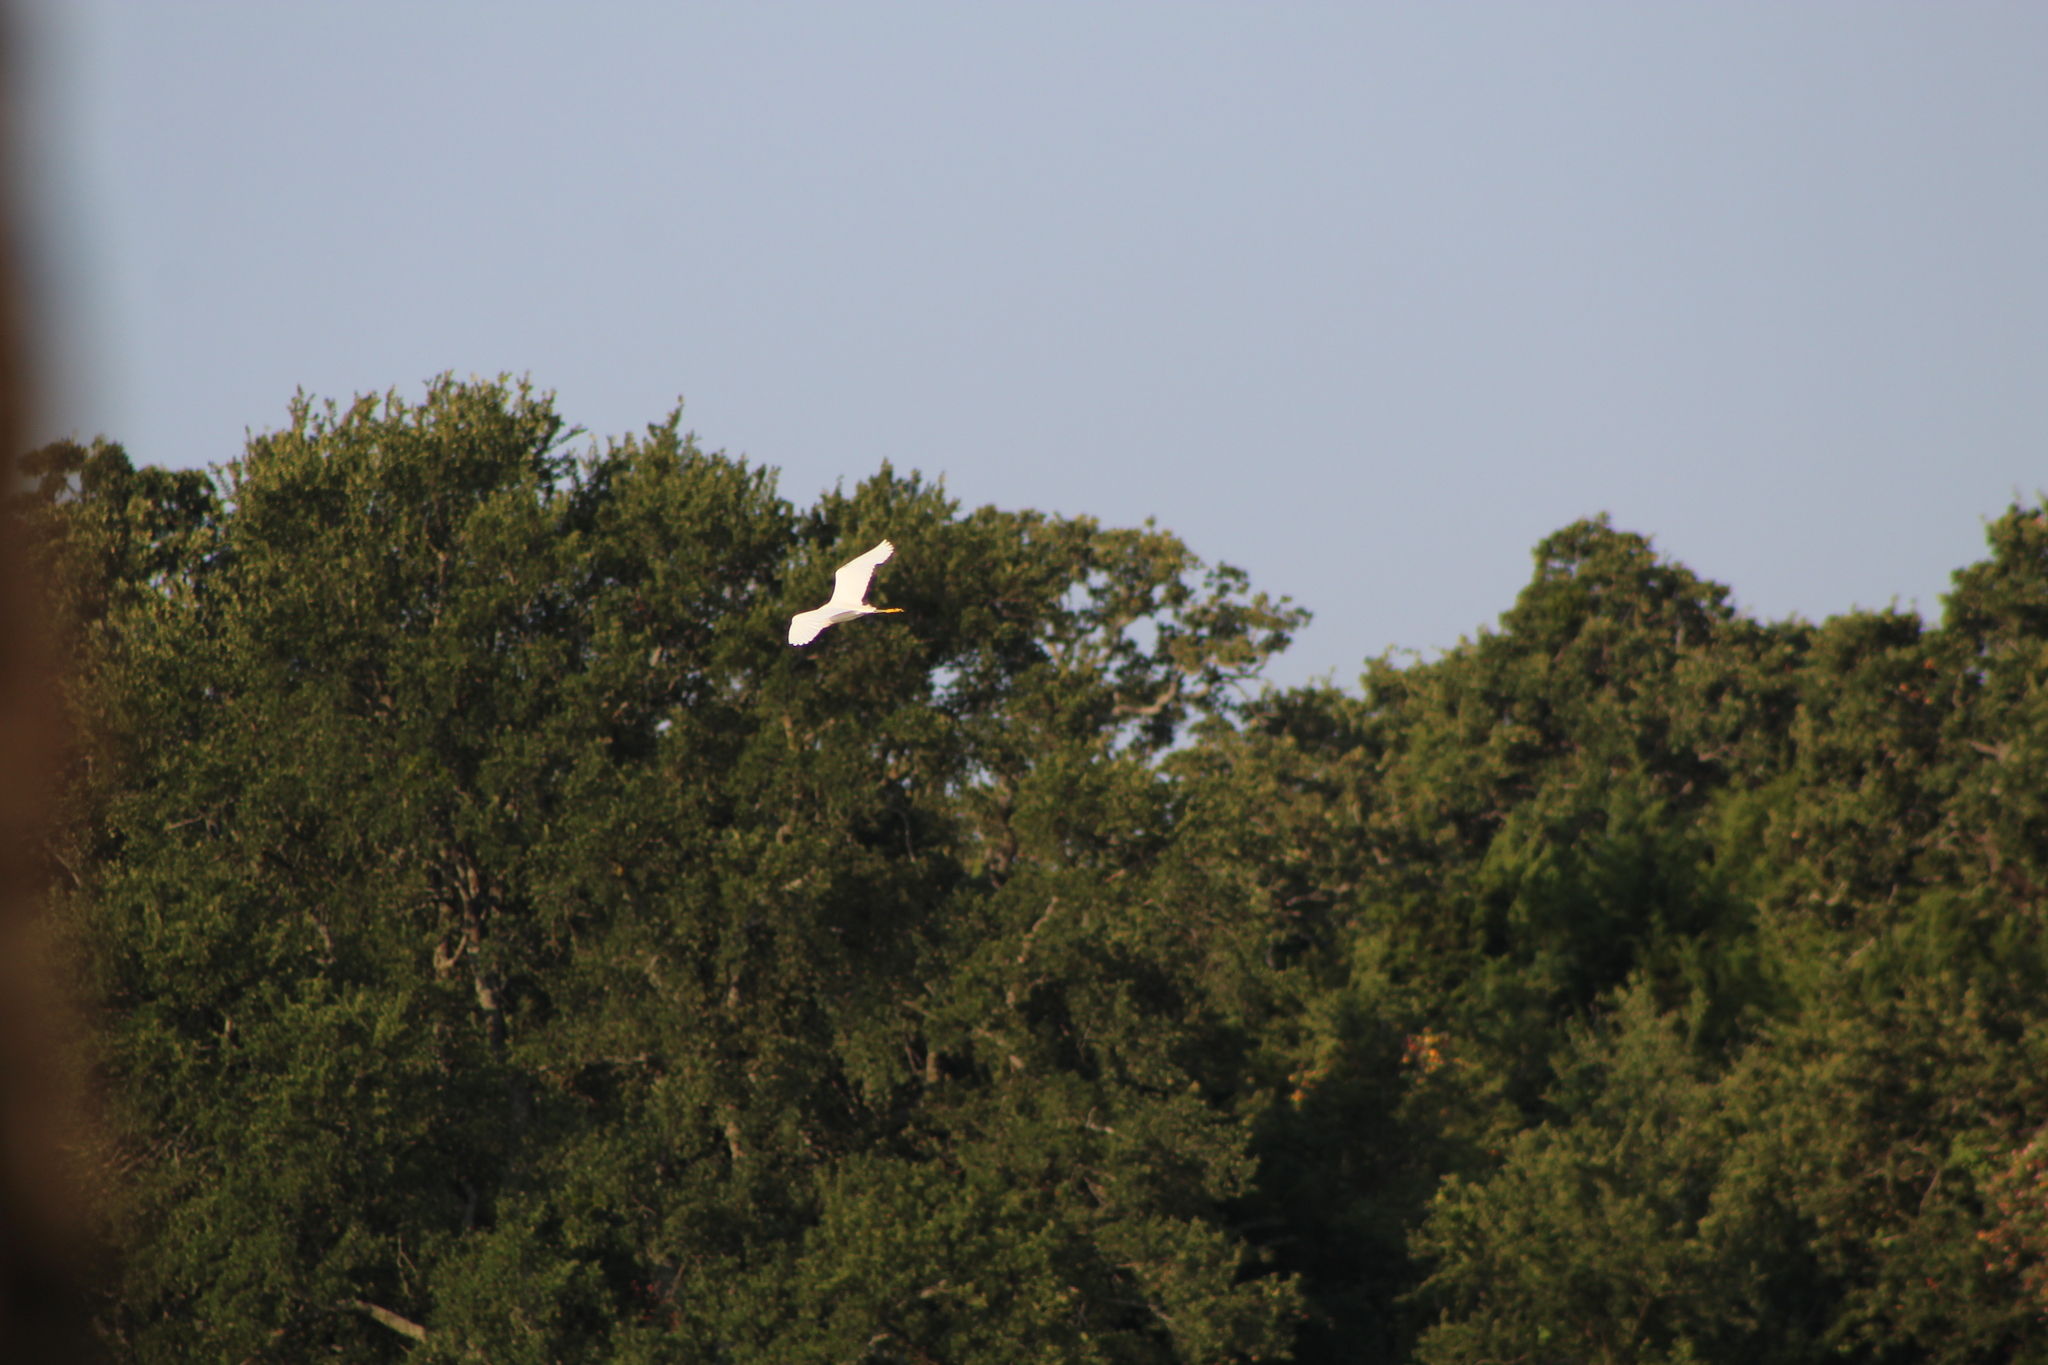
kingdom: Animalia
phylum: Chordata
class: Aves
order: Pelecaniformes
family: Ardeidae
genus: Egretta
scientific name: Egretta thula
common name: Snowy egret
